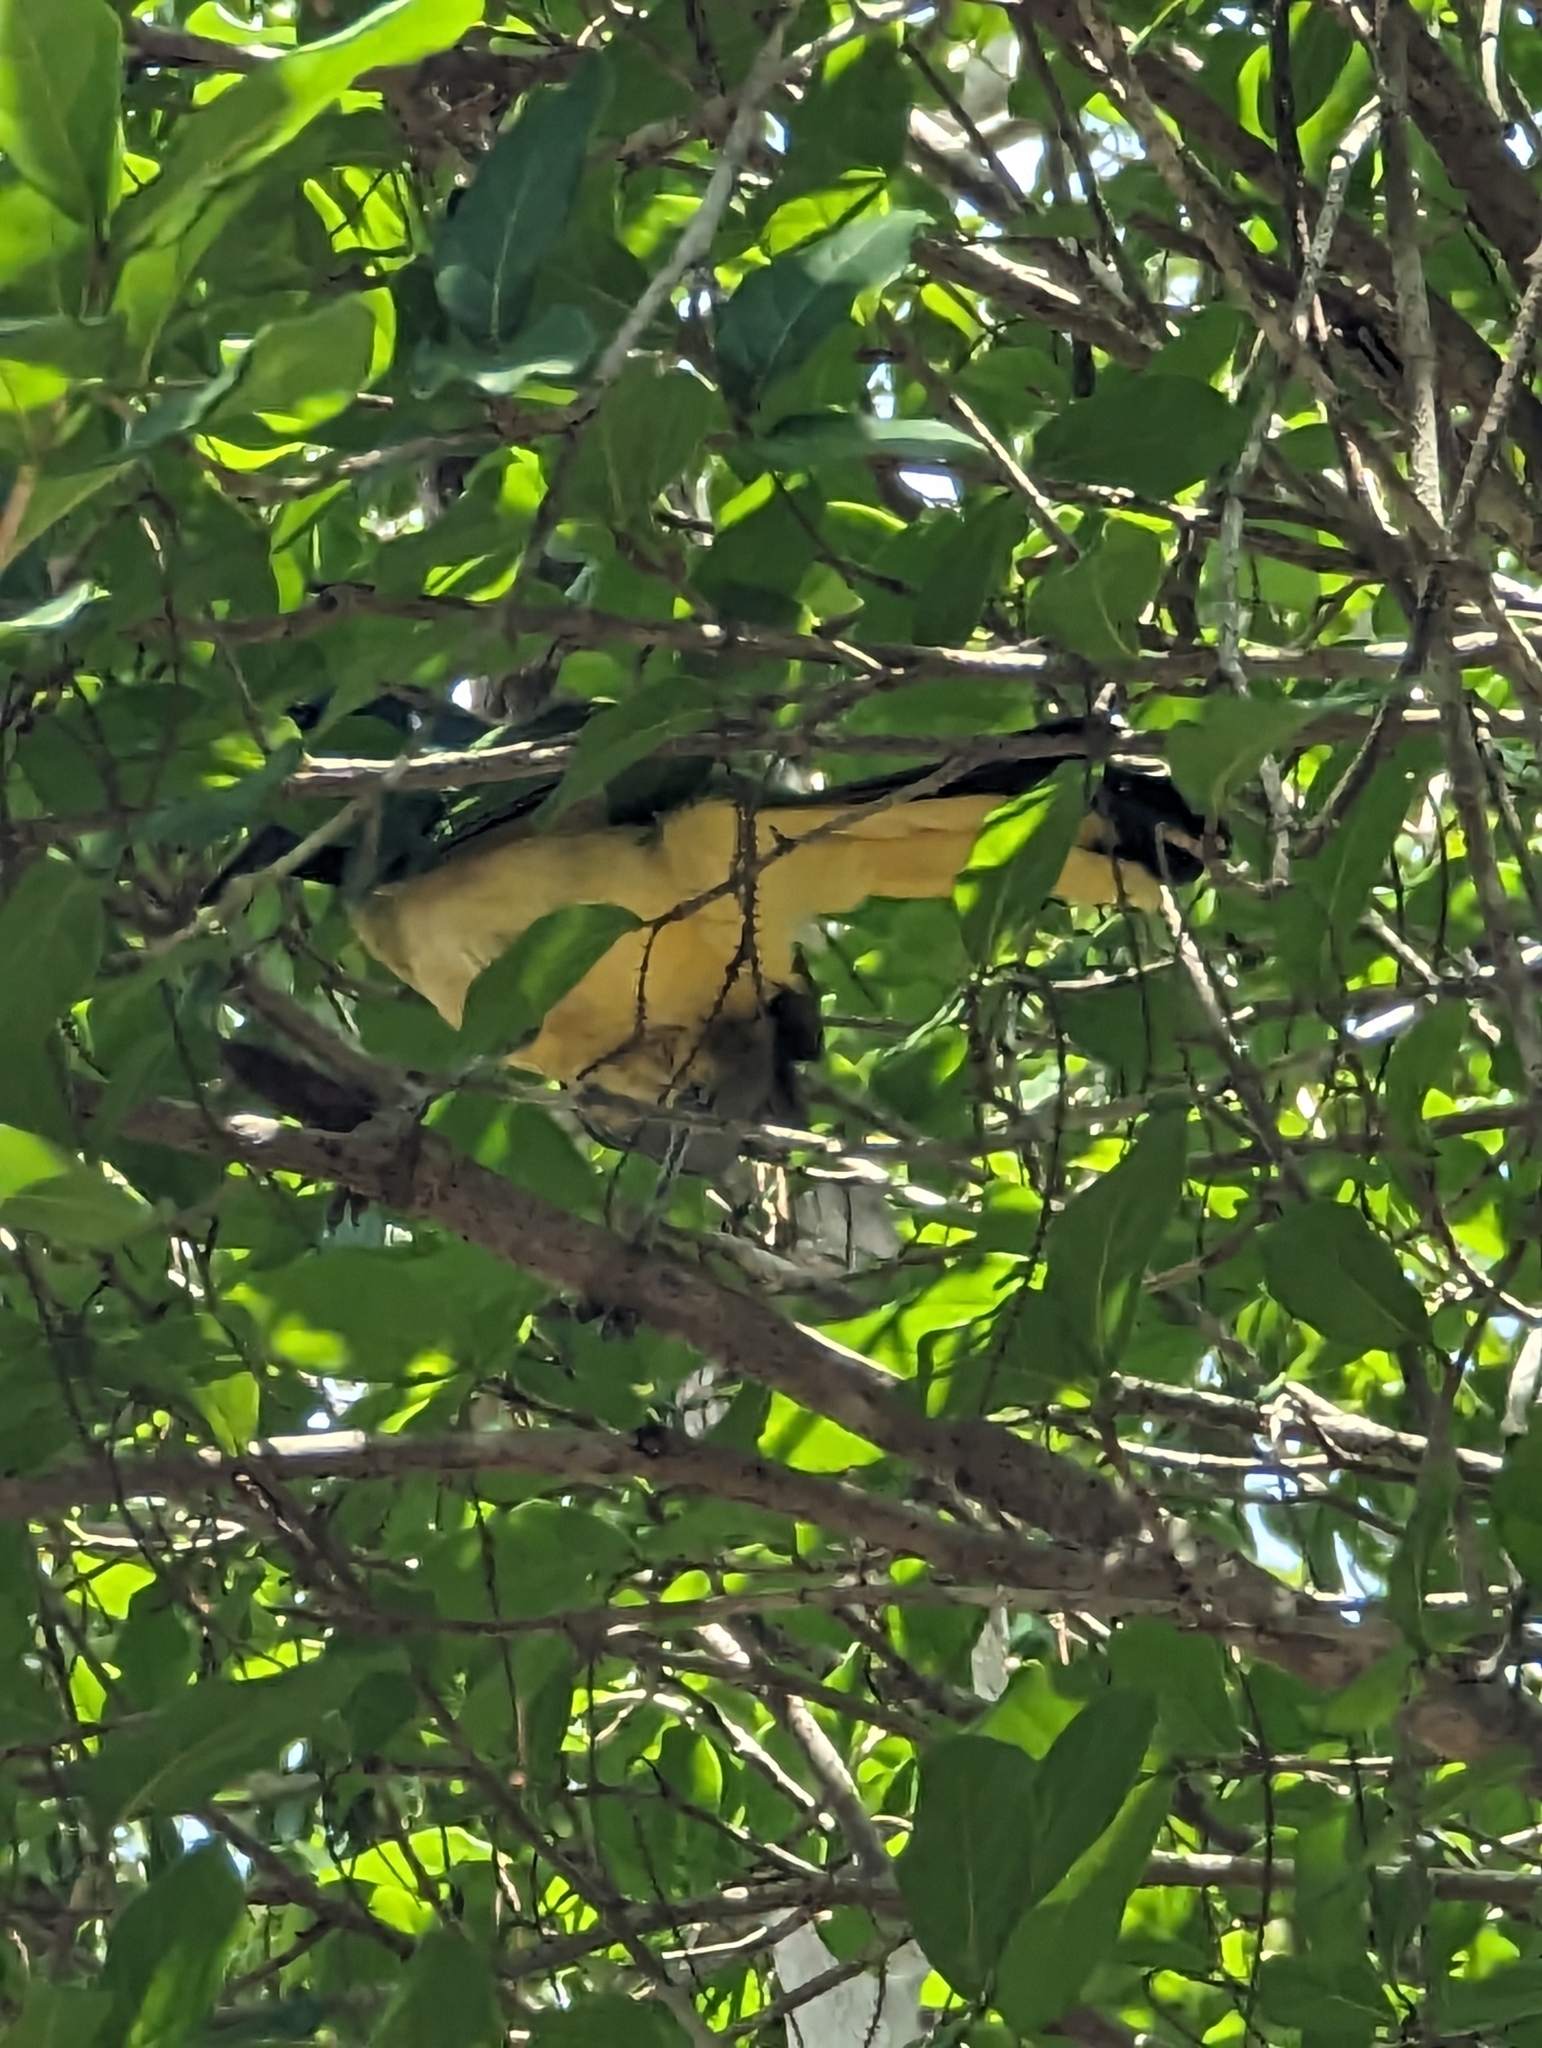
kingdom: Animalia
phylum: Chordata
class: Aves
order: Passeriformes
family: Corvidae
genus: Cyanocorax
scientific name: Cyanocorax yncas
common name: Green jay
